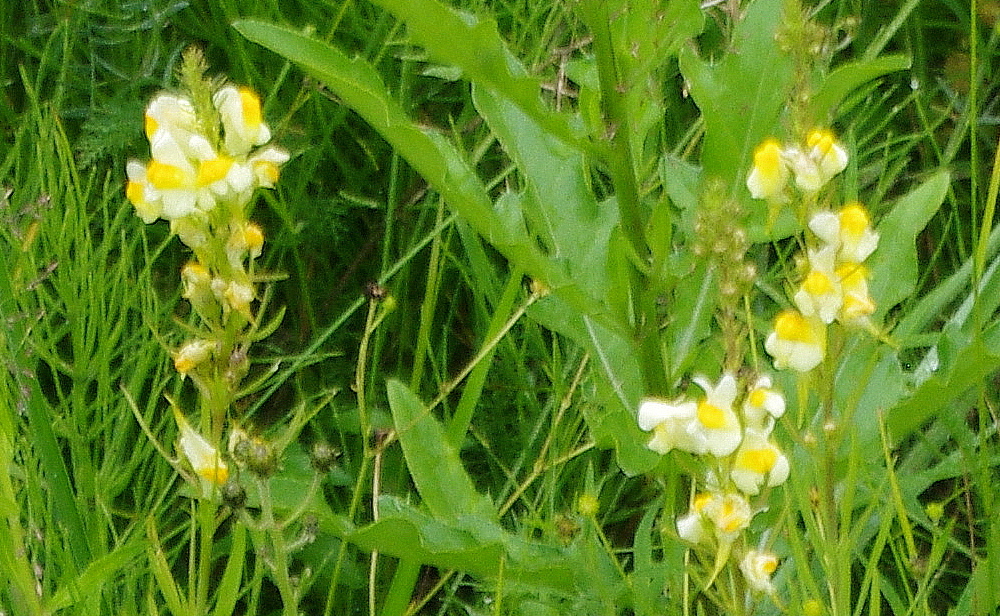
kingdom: Plantae
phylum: Tracheophyta
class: Magnoliopsida
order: Lamiales
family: Plantaginaceae
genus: Linaria
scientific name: Linaria vulgaris
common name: Butter and eggs
